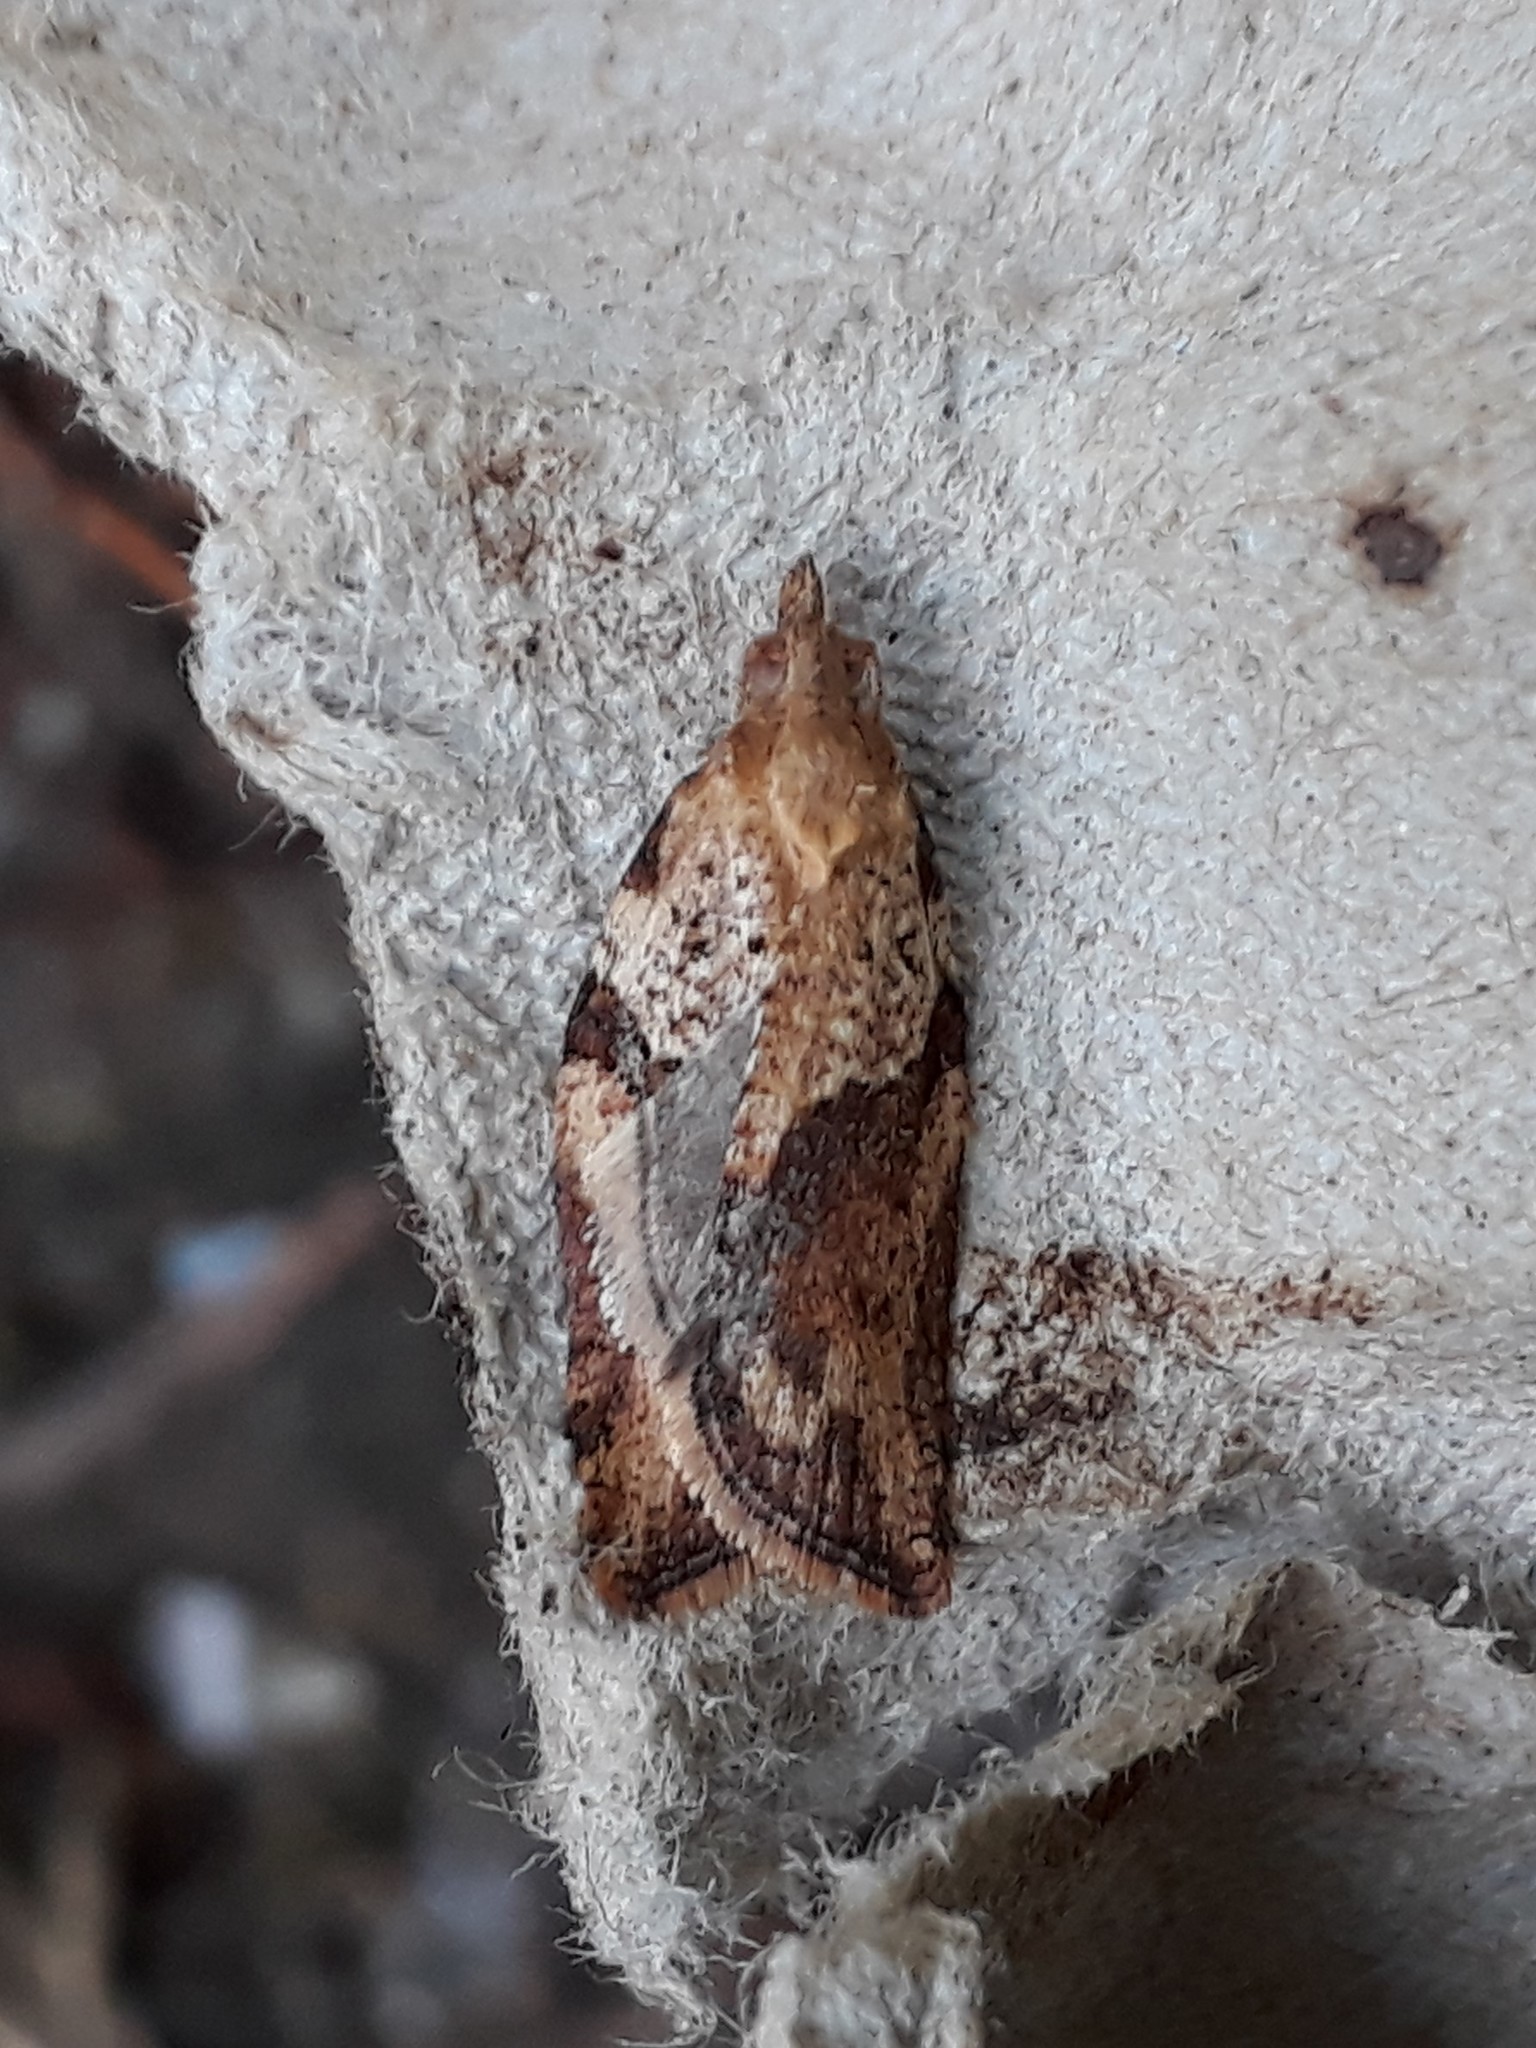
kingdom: Animalia
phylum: Arthropoda
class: Insecta
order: Lepidoptera
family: Tortricidae
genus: Epiphyas
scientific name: Epiphyas postvittana
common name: Light brown apple moth
